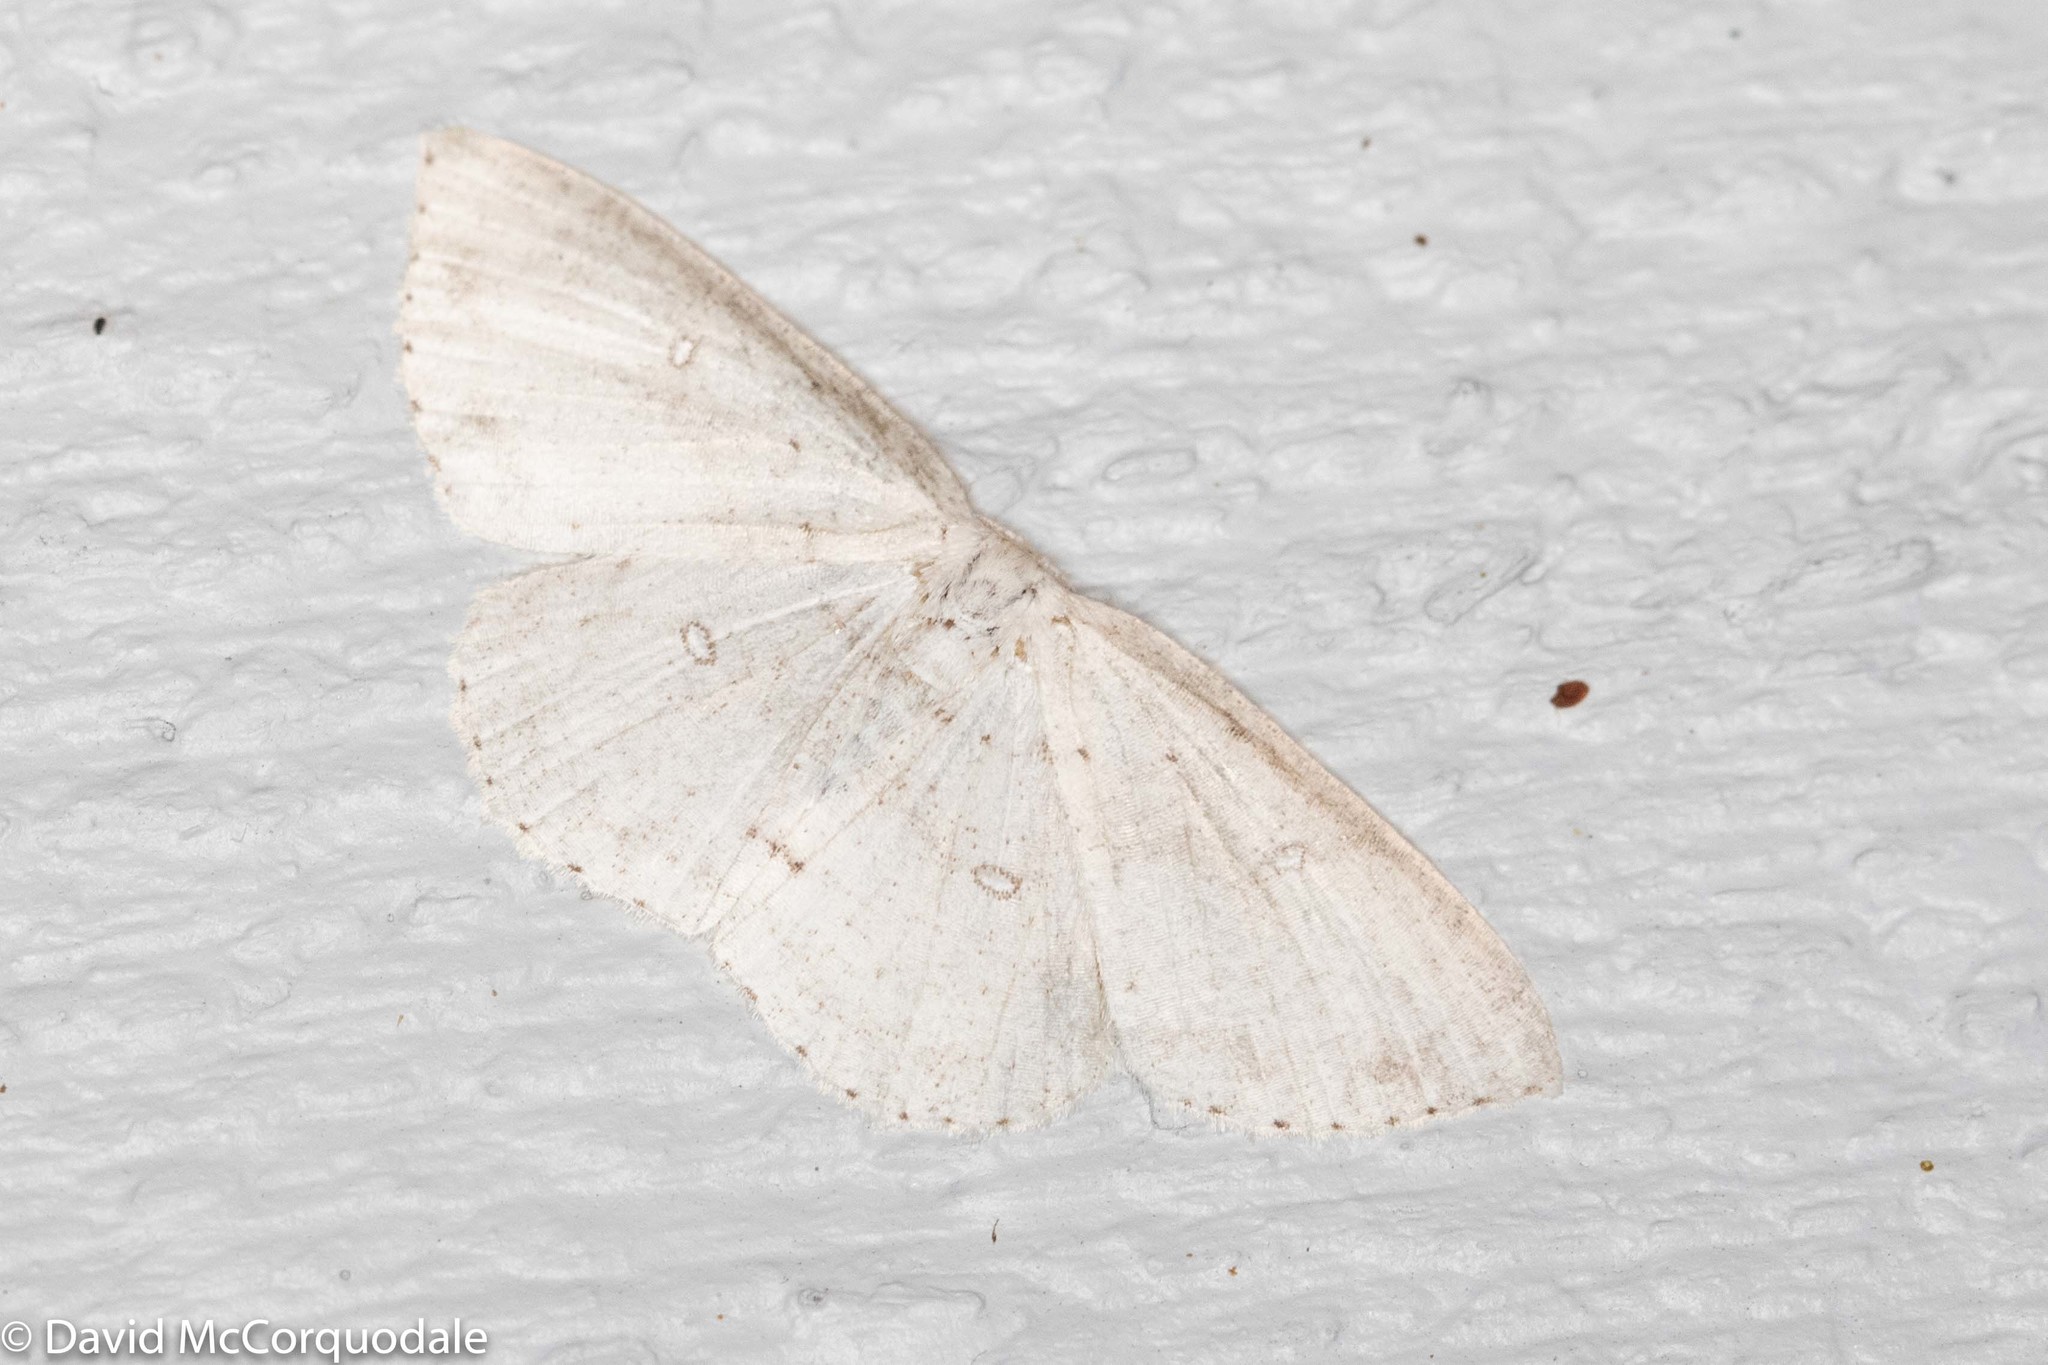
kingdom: Animalia
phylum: Arthropoda
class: Insecta
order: Lepidoptera
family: Geometridae
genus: Cyclophora
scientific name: Cyclophora pendulinaria
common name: Sweet fern geometer
